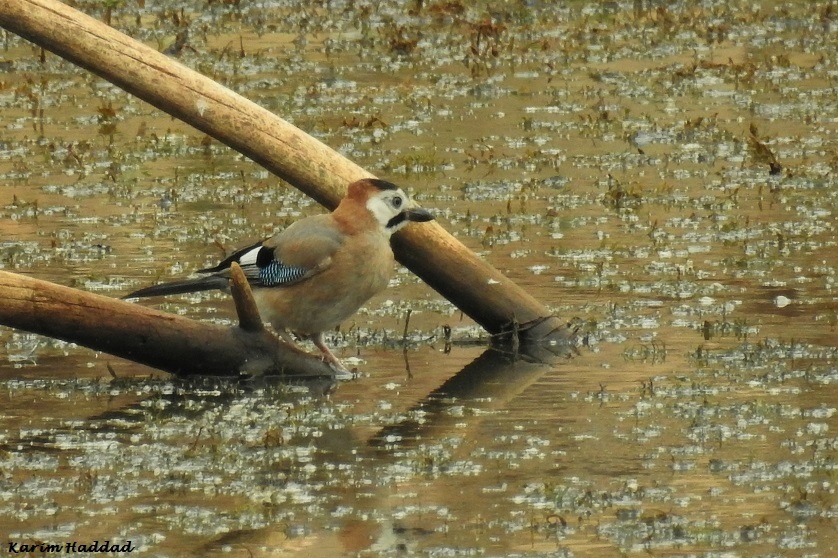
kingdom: Animalia
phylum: Chordata
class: Aves
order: Passeriformes
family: Corvidae
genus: Garrulus
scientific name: Garrulus glandarius
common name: Eurasian jay
